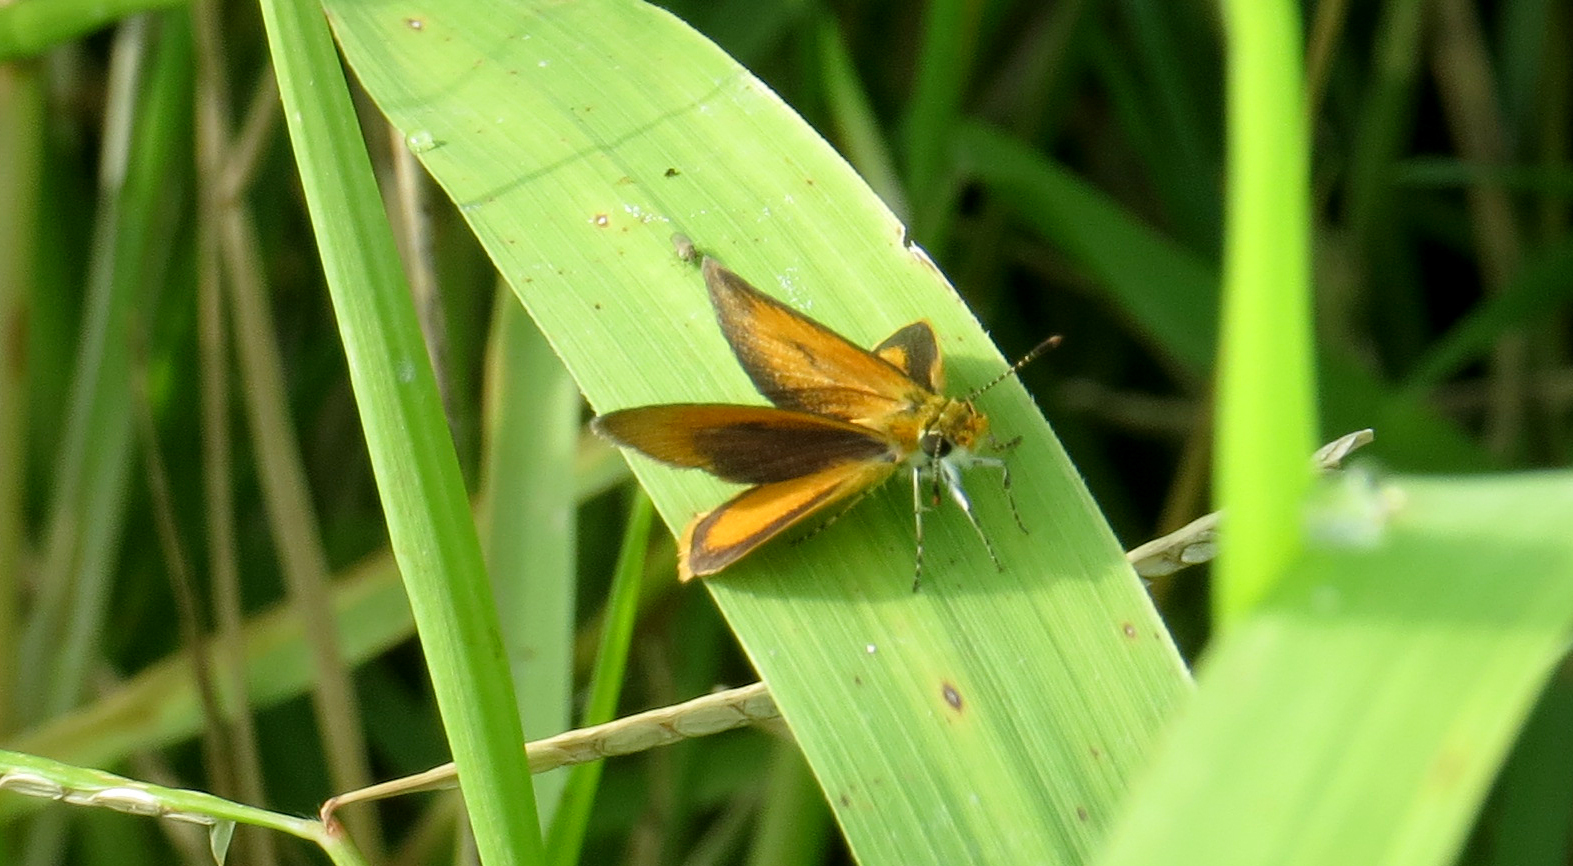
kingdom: Animalia
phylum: Arthropoda
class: Insecta
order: Lepidoptera
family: Hesperiidae
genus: Ancyloxypha
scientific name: Ancyloxypha numitor
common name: Least skipper
